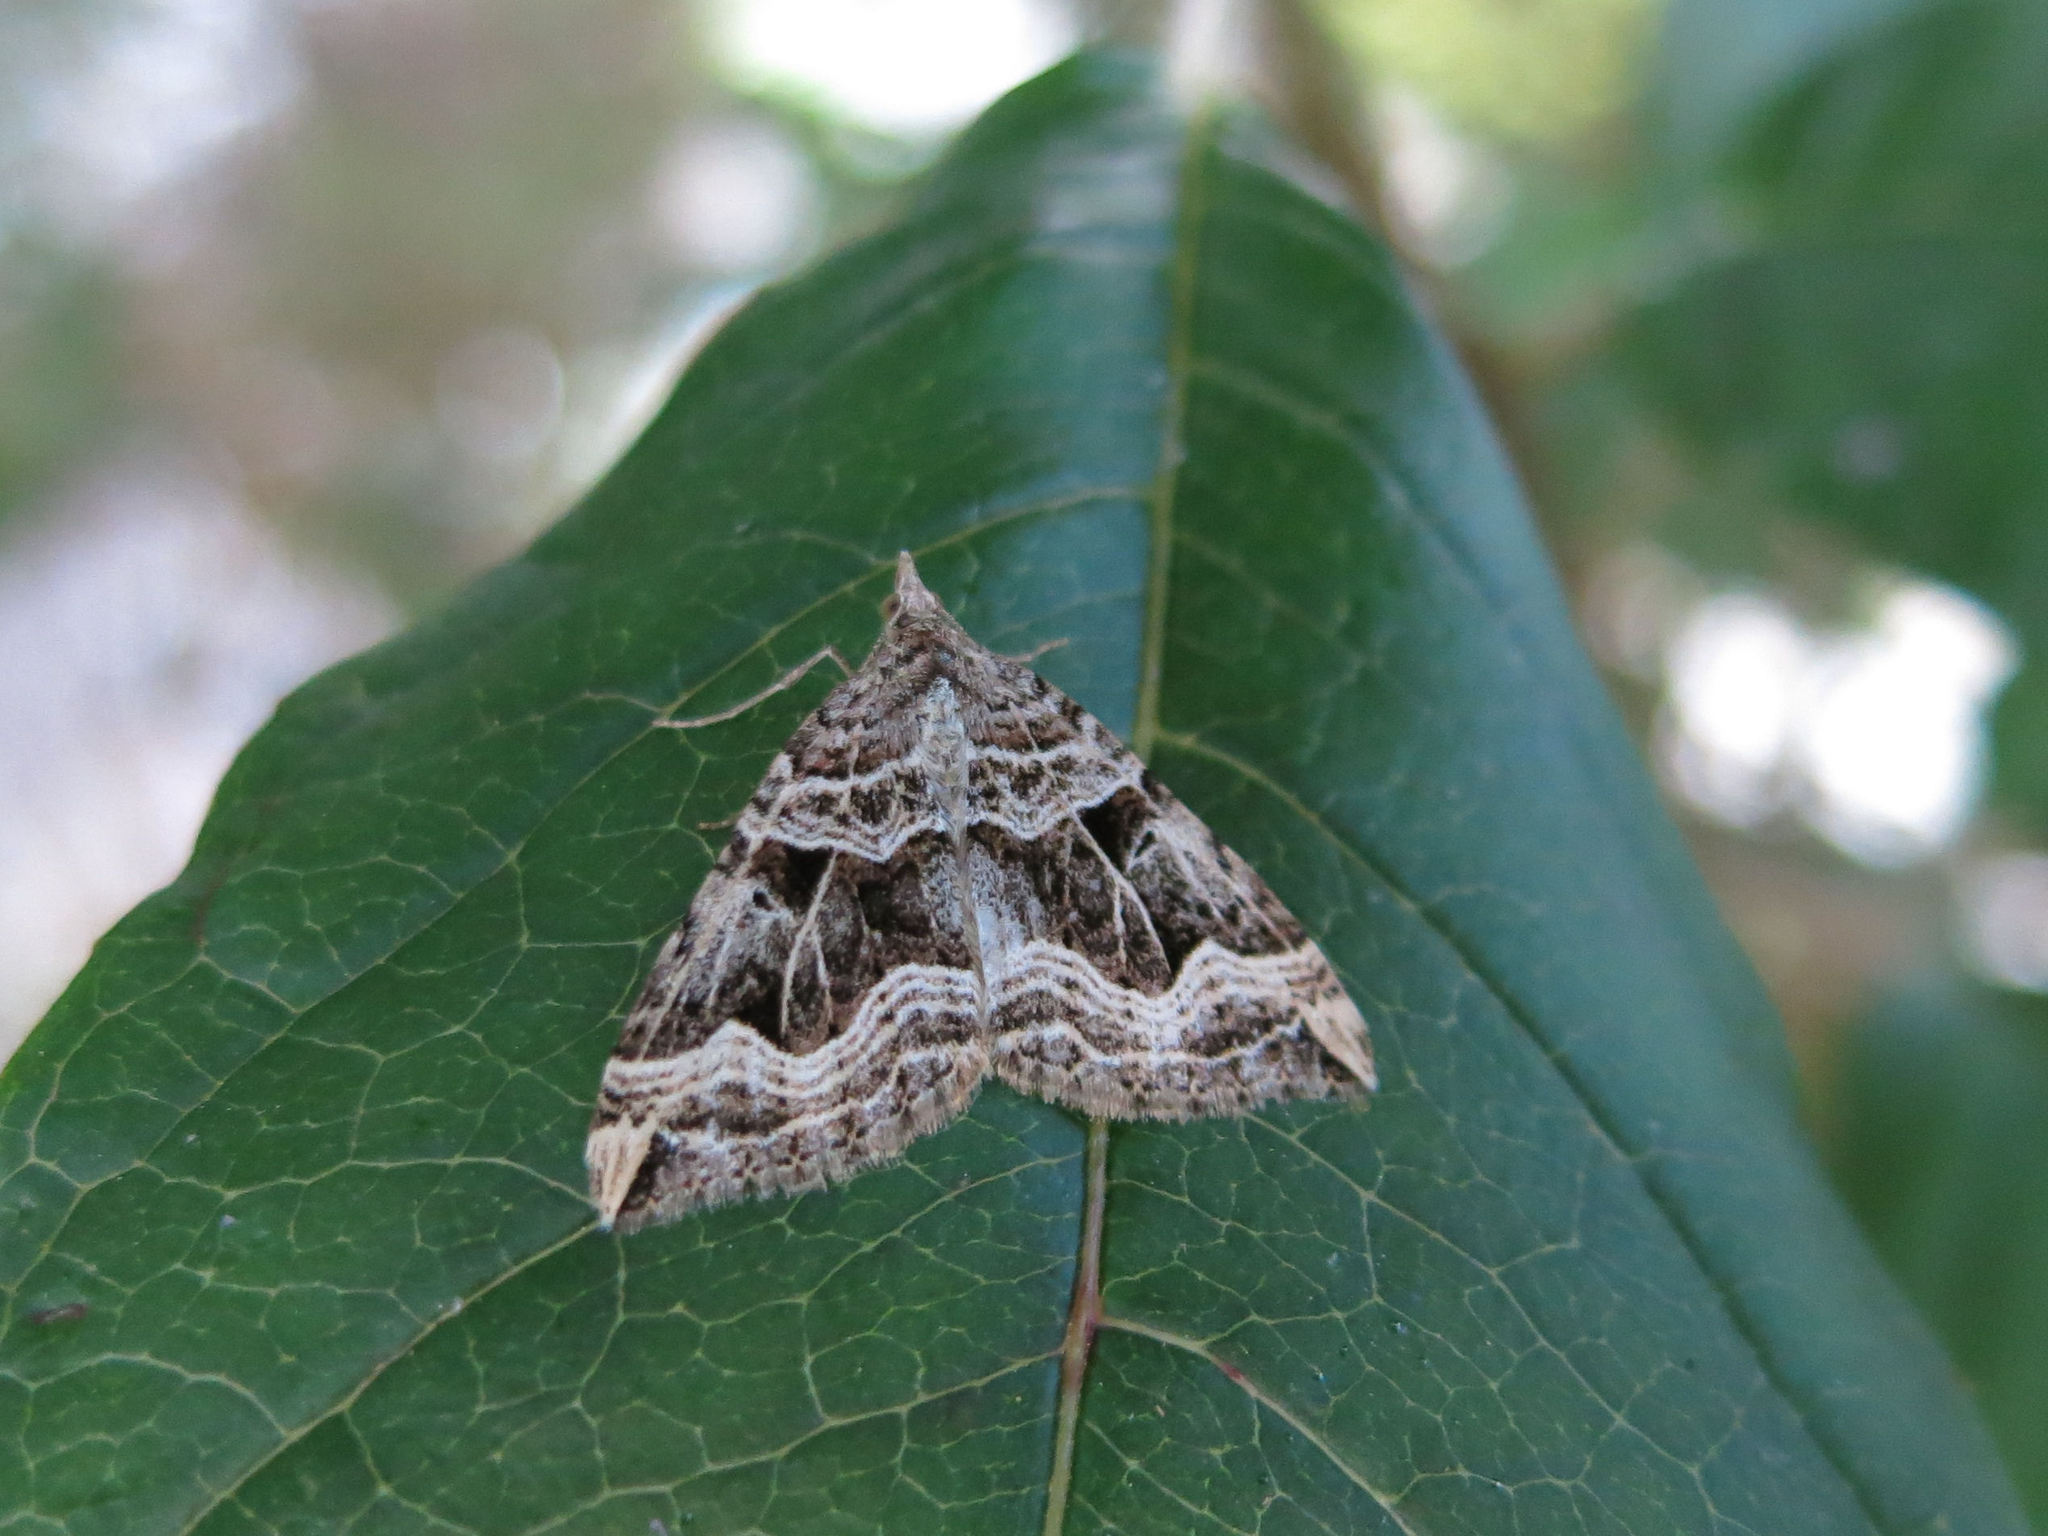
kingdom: Animalia
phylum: Arthropoda
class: Insecta
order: Lepidoptera
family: Geometridae
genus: Xanthorhoe
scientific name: Xanthorhoe semifissata
